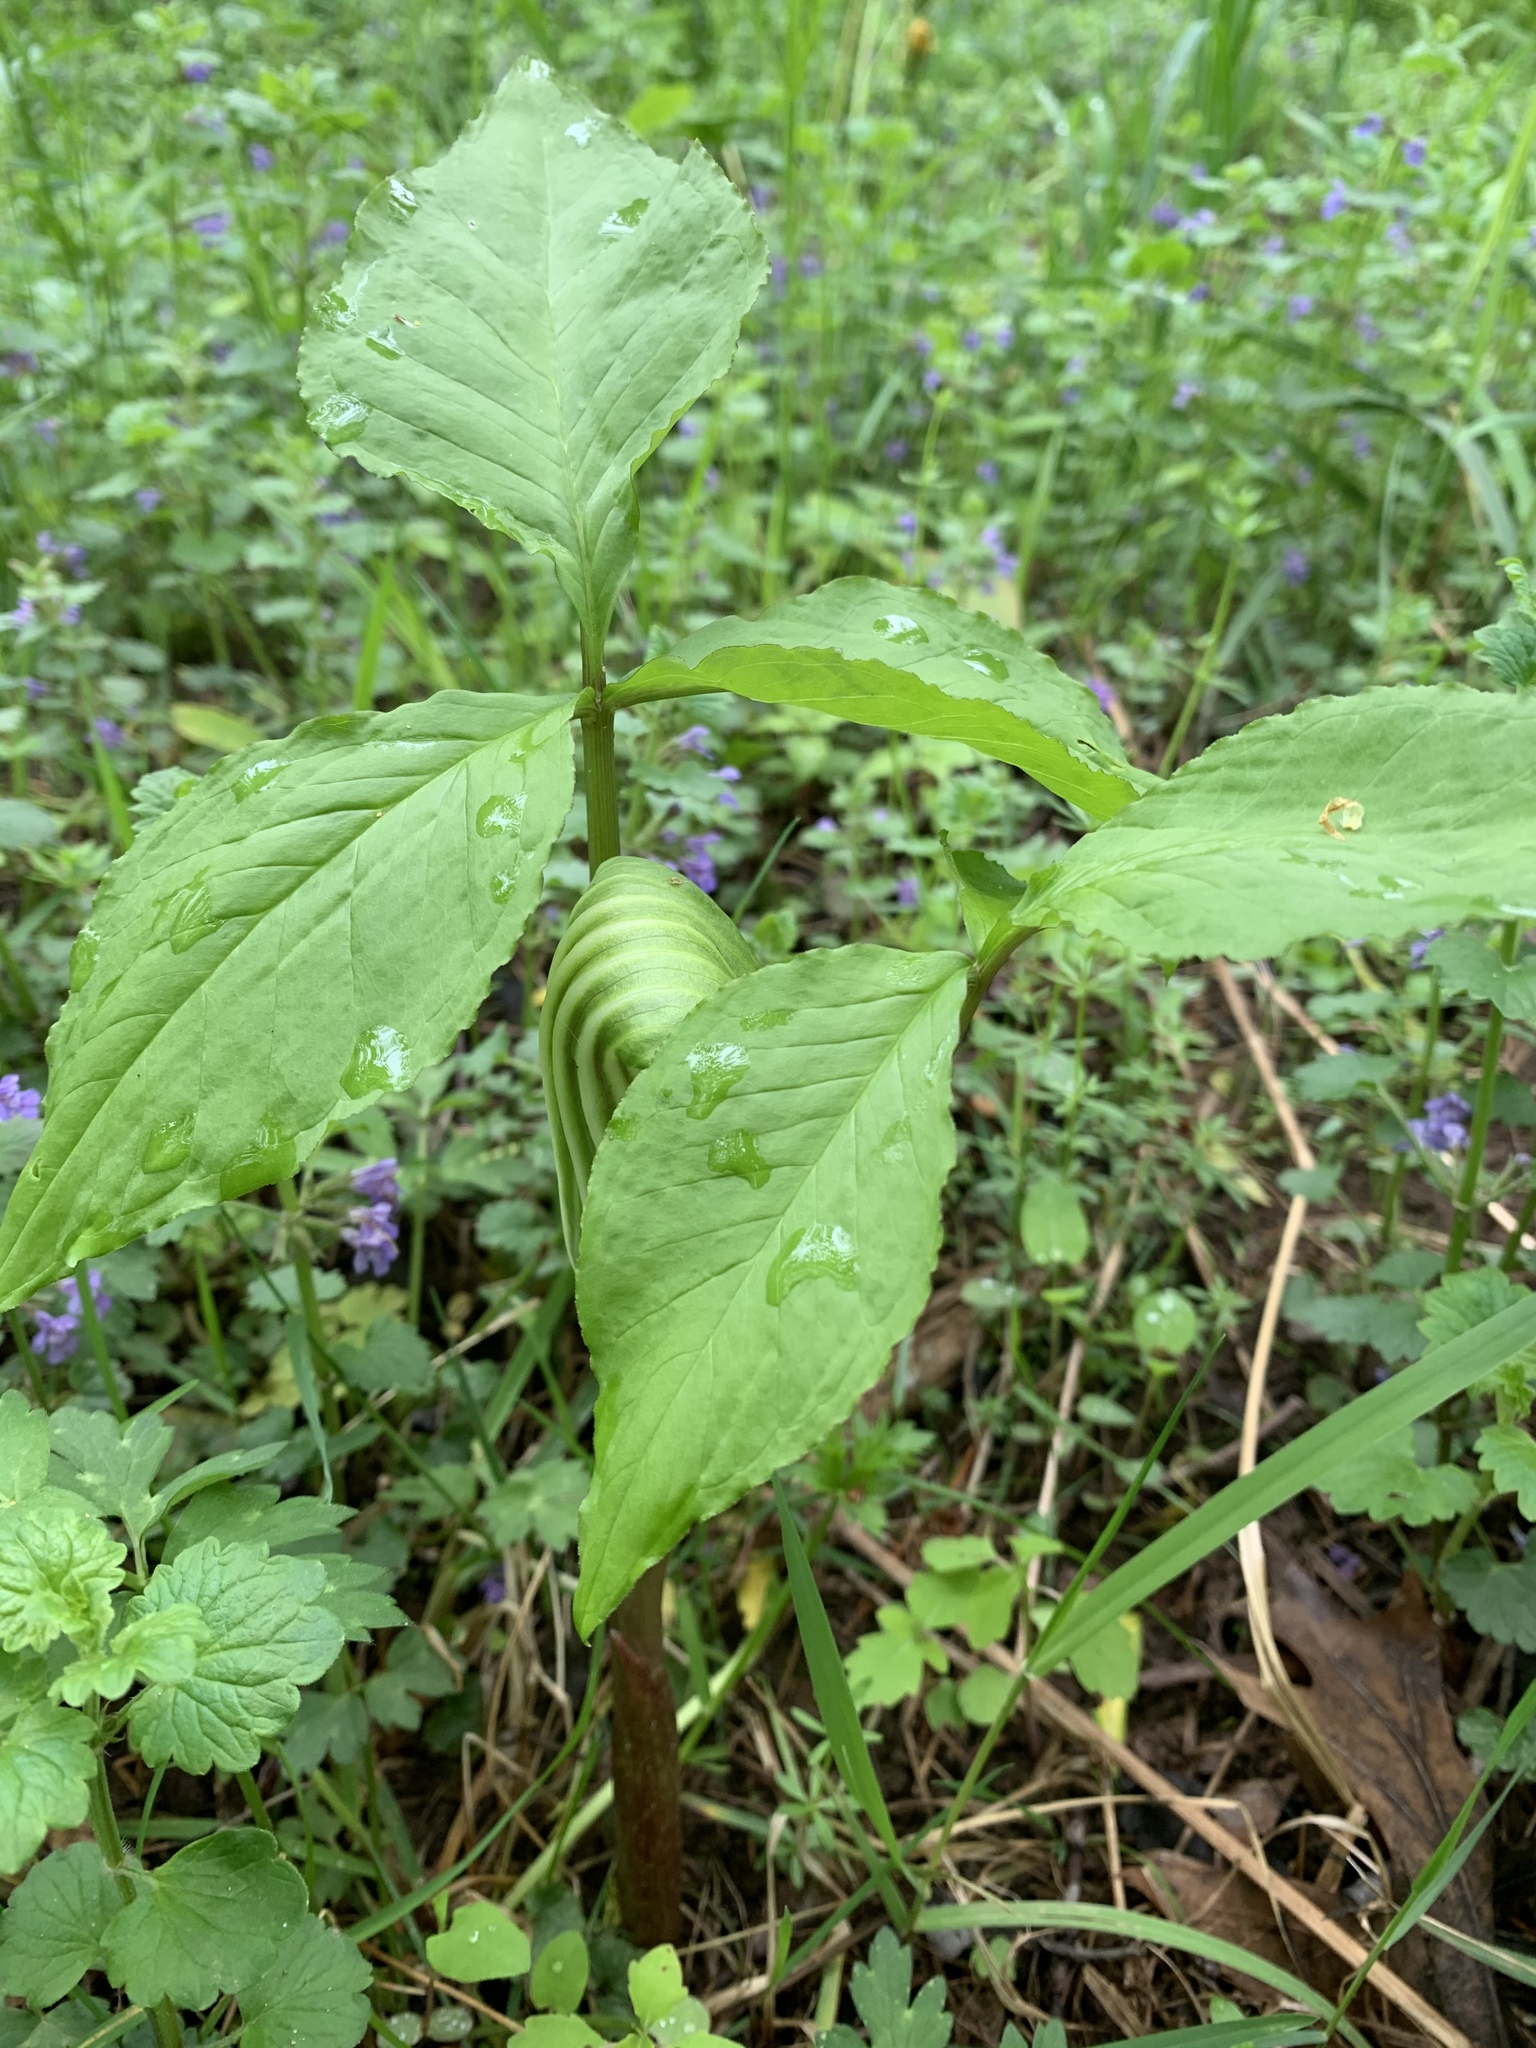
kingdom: Plantae
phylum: Tracheophyta
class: Liliopsida
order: Alismatales
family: Araceae
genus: Arisaema
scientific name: Arisaema stewardsonii
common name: Swamp jack-in-the-pulpit
